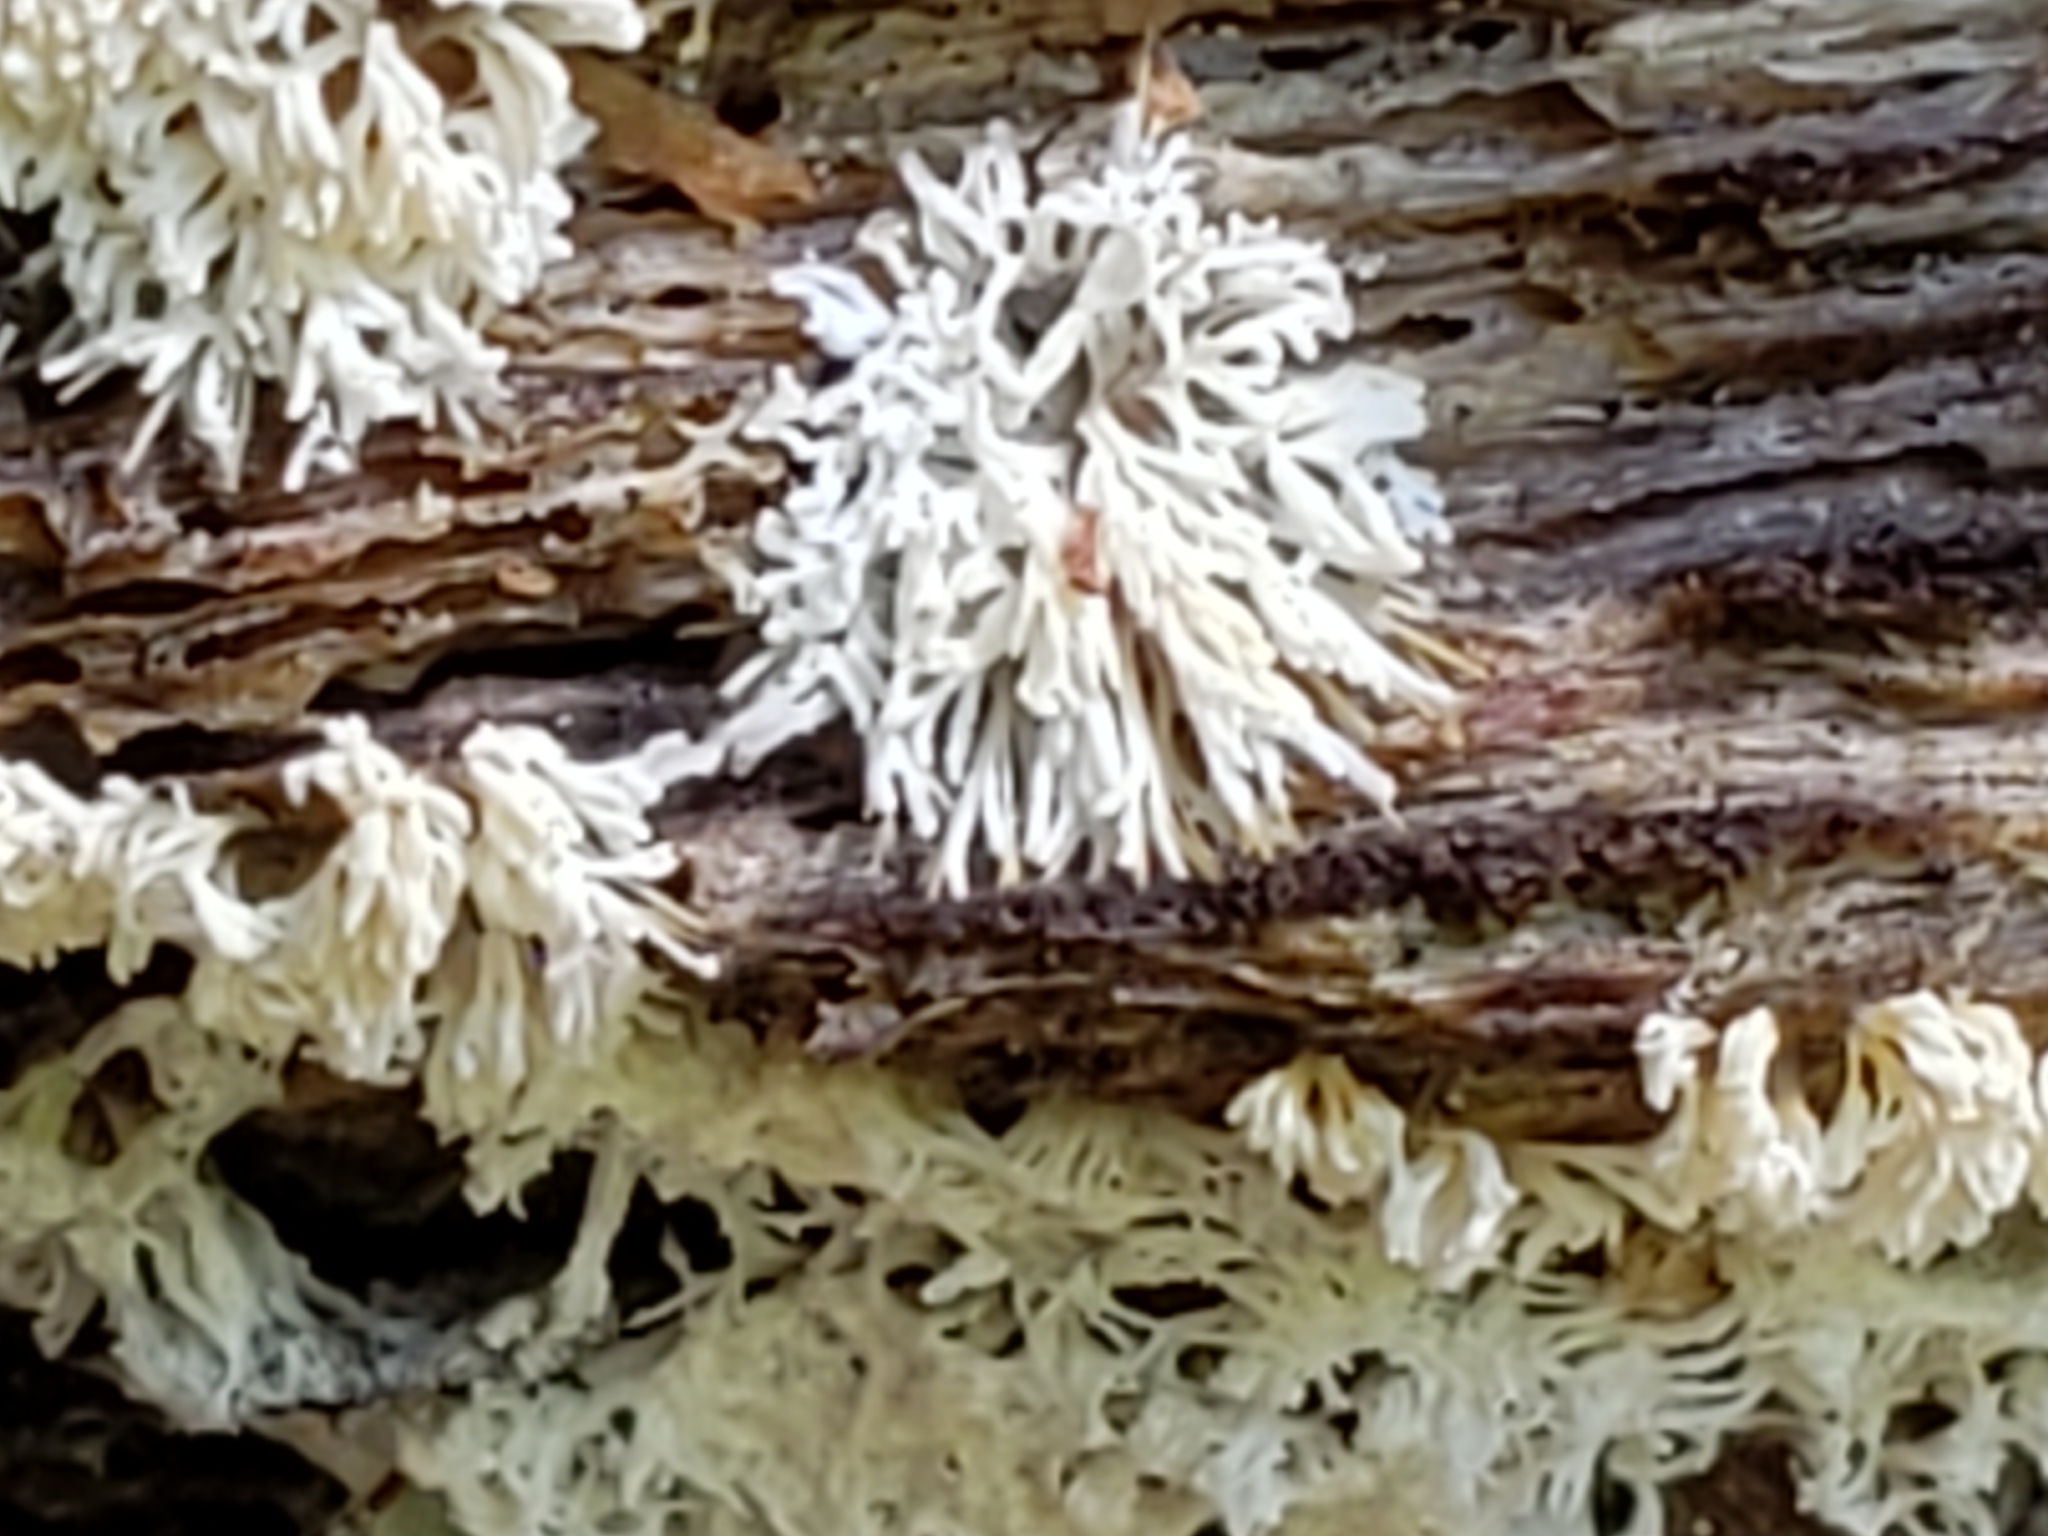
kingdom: Protozoa
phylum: Mycetozoa
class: Protosteliomycetes
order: Ceratiomyxales
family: Ceratiomyxaceae
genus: Ceratiomyxa
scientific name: Ceratiomyxa fruticulosa
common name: Honeycomb coral slime mold
